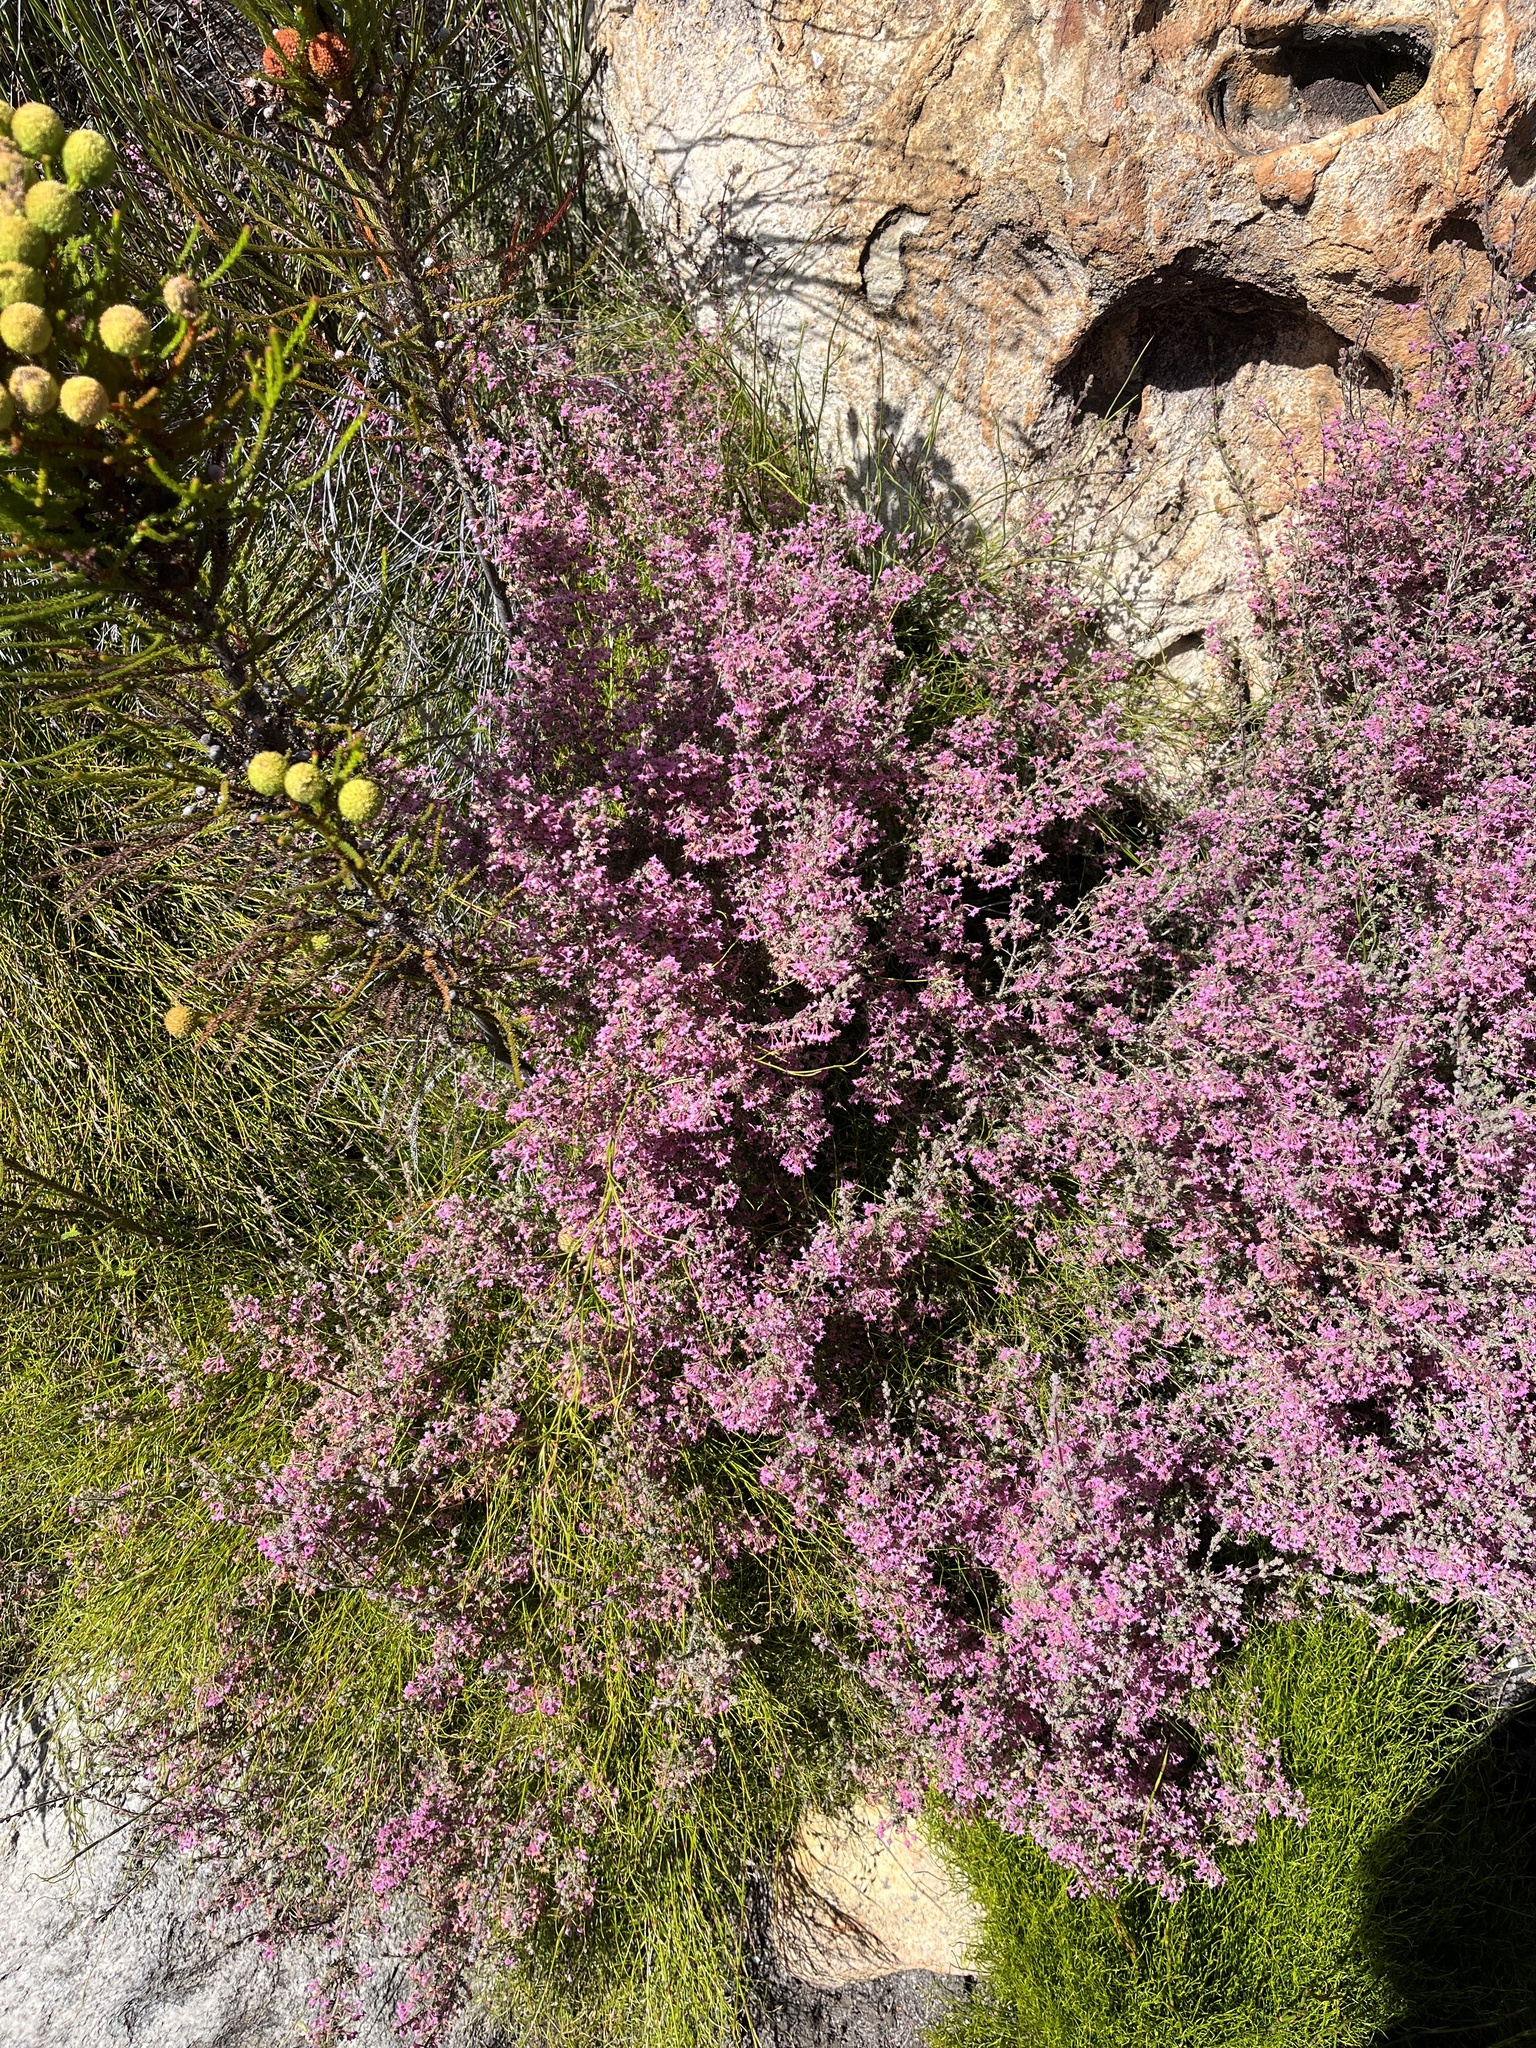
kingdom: Plantae
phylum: Tracheophyta
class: Magnoliopsida
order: Ericales
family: Ericaceae
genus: Erica
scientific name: Erica atropurpurea
